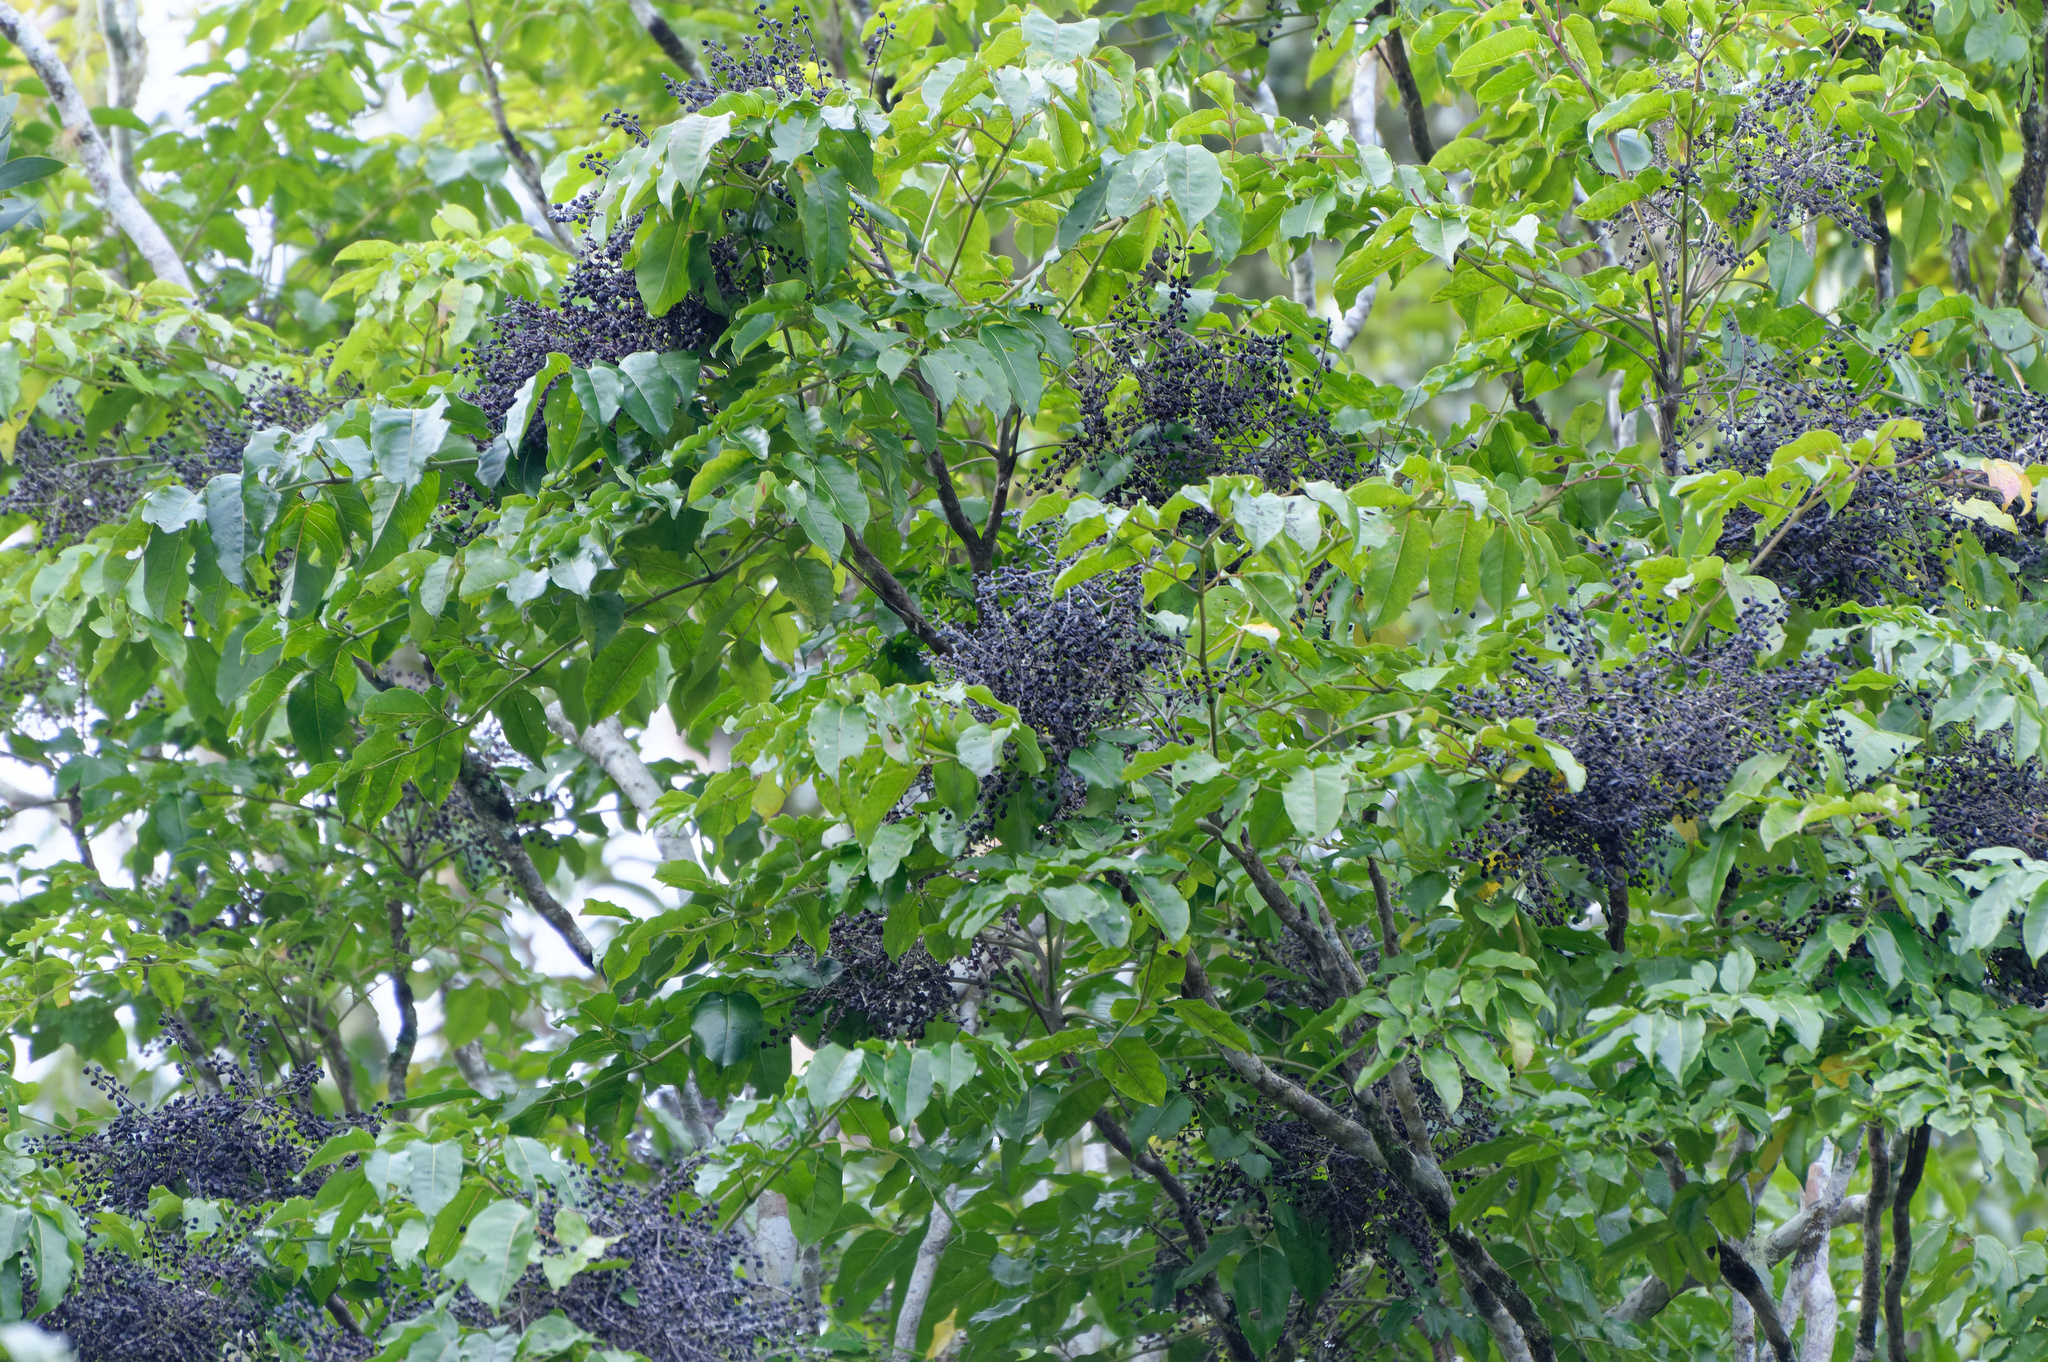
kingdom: Plantae
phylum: Tracheophyta
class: Magnoliopsida
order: Apiales
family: Araliaceae
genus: Polyscias
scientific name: Polyscias elegans
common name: Mowbulan whitewood
